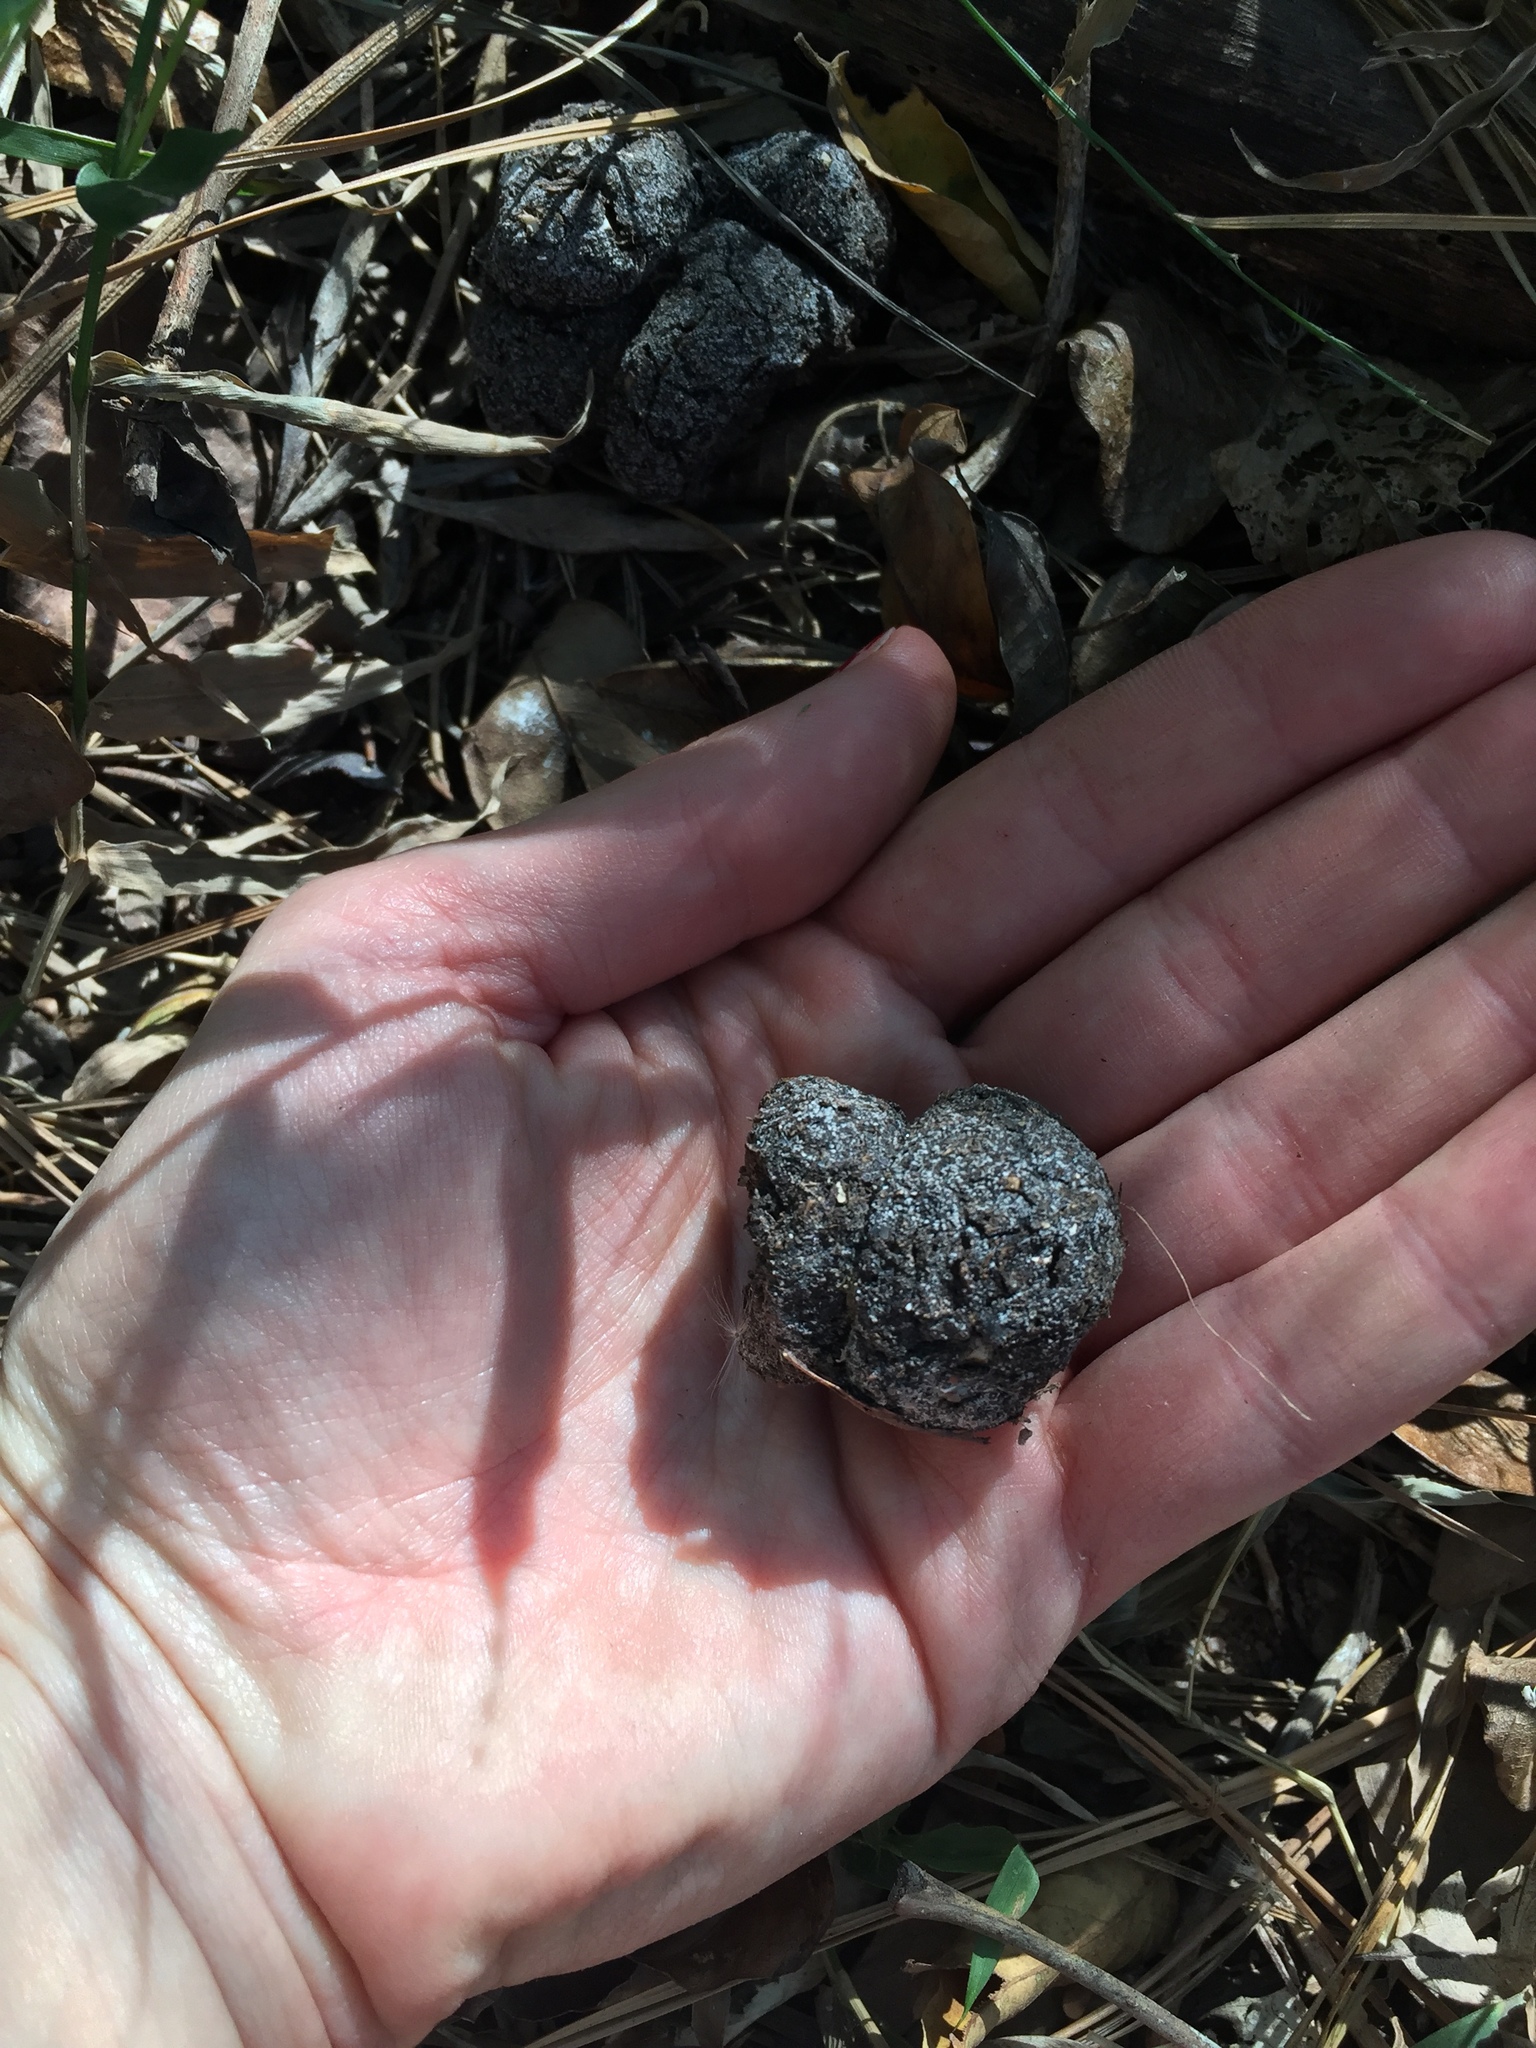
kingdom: Animalia
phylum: Chordata
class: Mammalia
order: Artiodactyla
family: Suidae
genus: Potamochoerus
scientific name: Potamochoerus larvatus
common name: Bushpig
